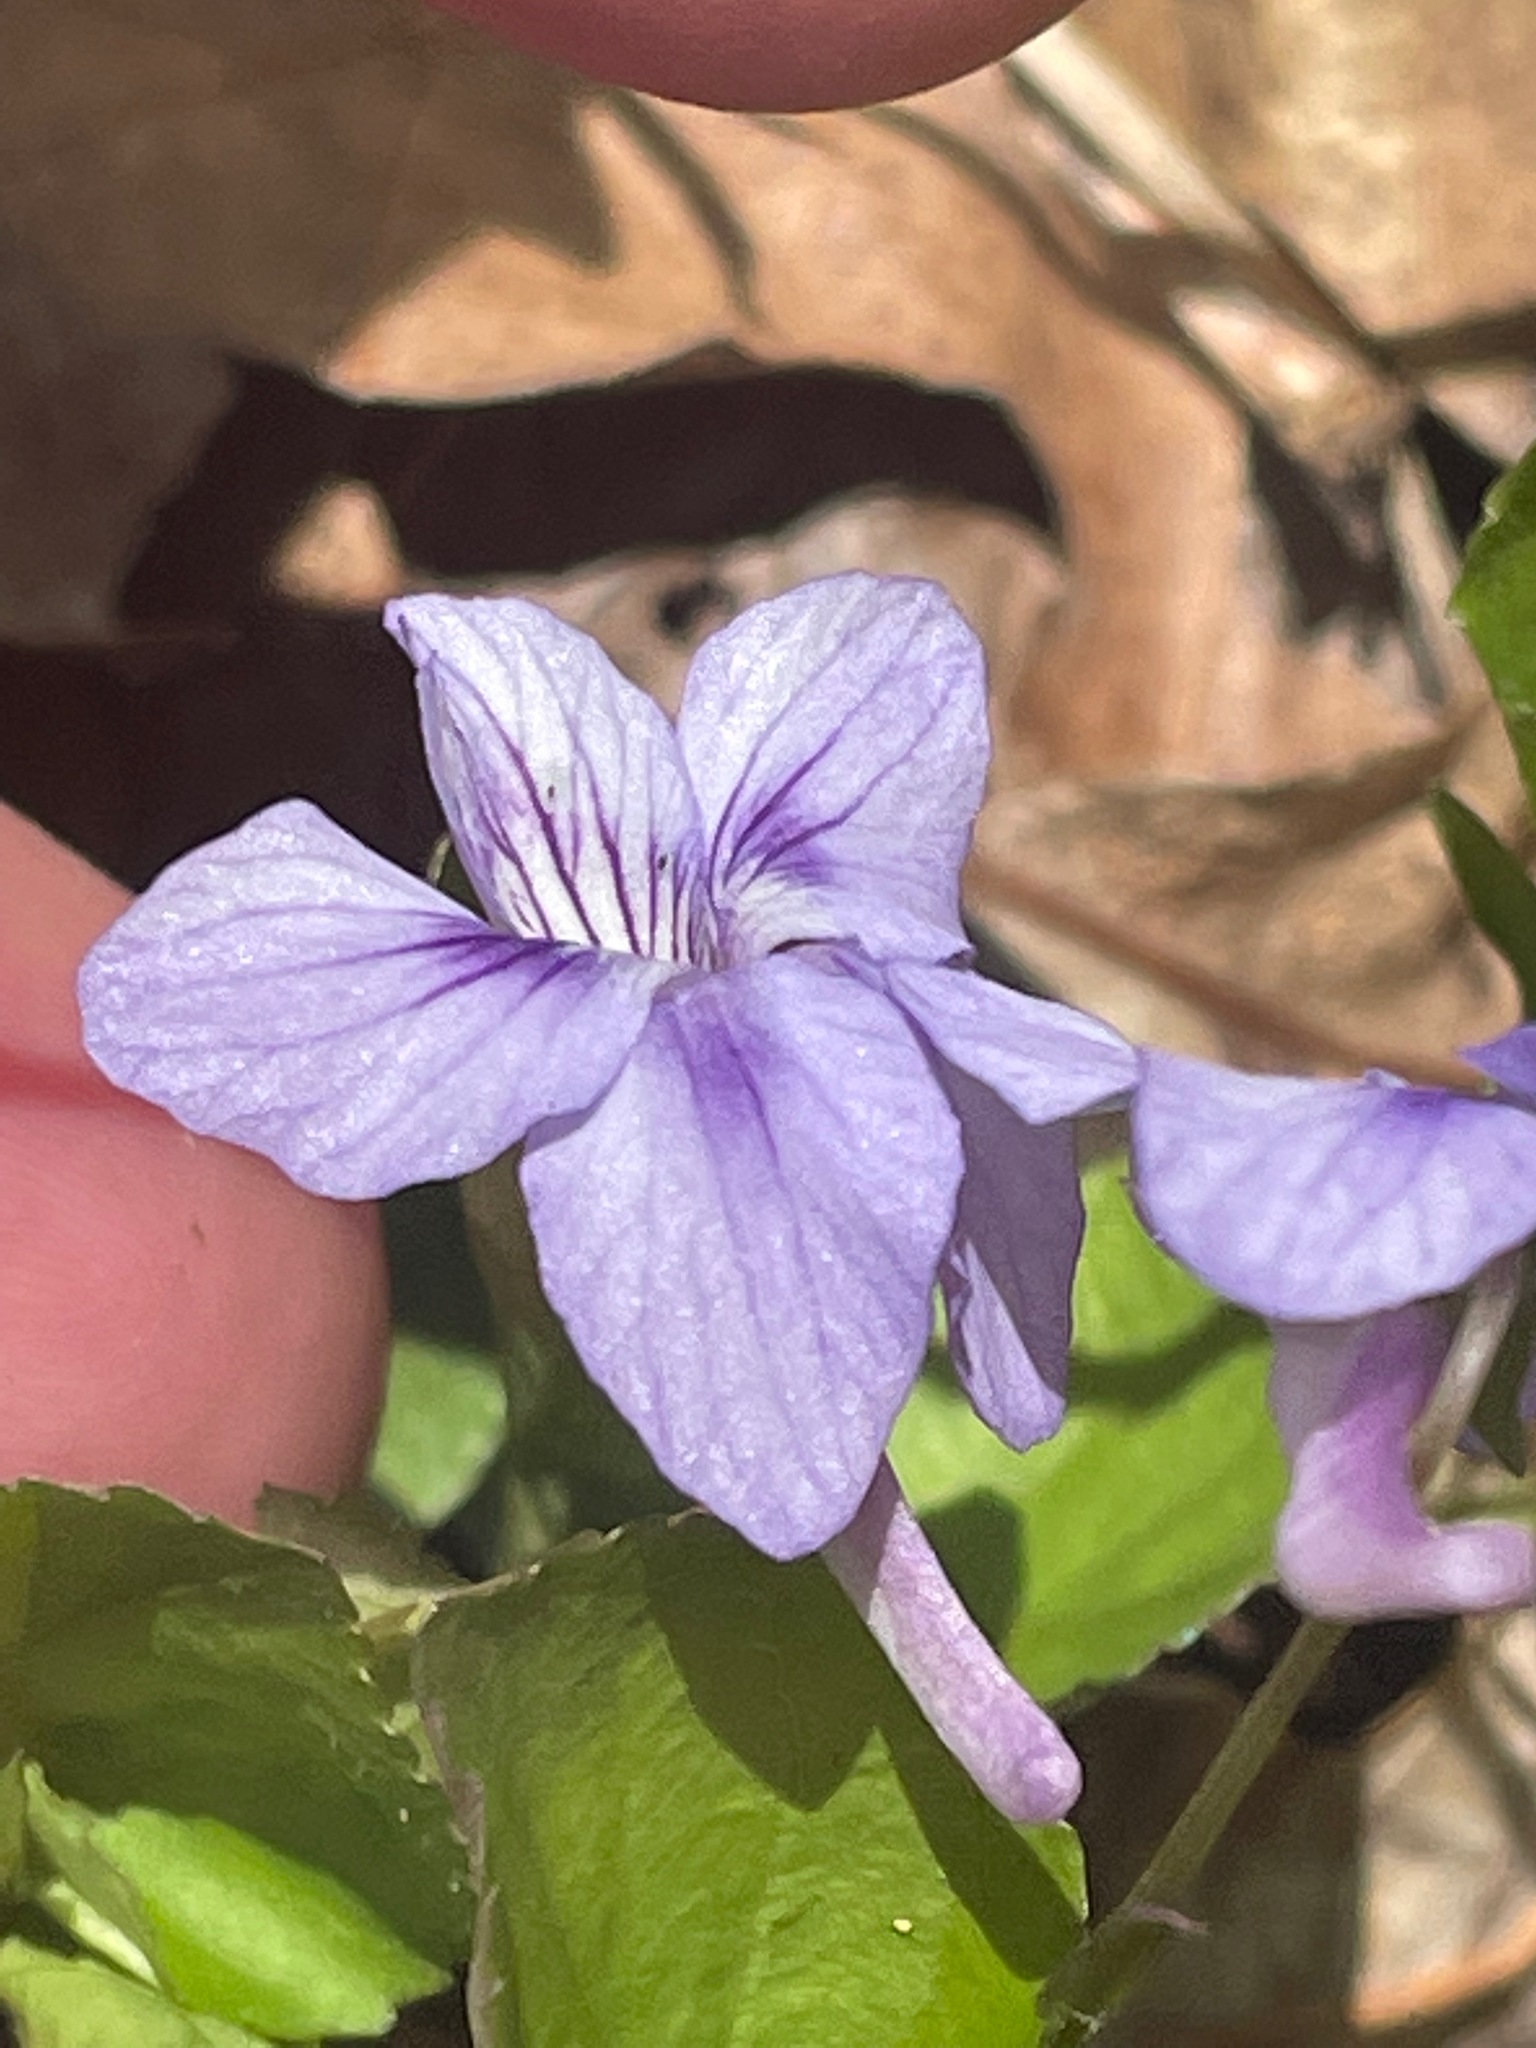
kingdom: Plantae
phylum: Tracheophyta
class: Magnoliopsida
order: Malpighiales
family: Violaceae
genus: Viola
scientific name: Viola rostrata
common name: Long-spur violet
